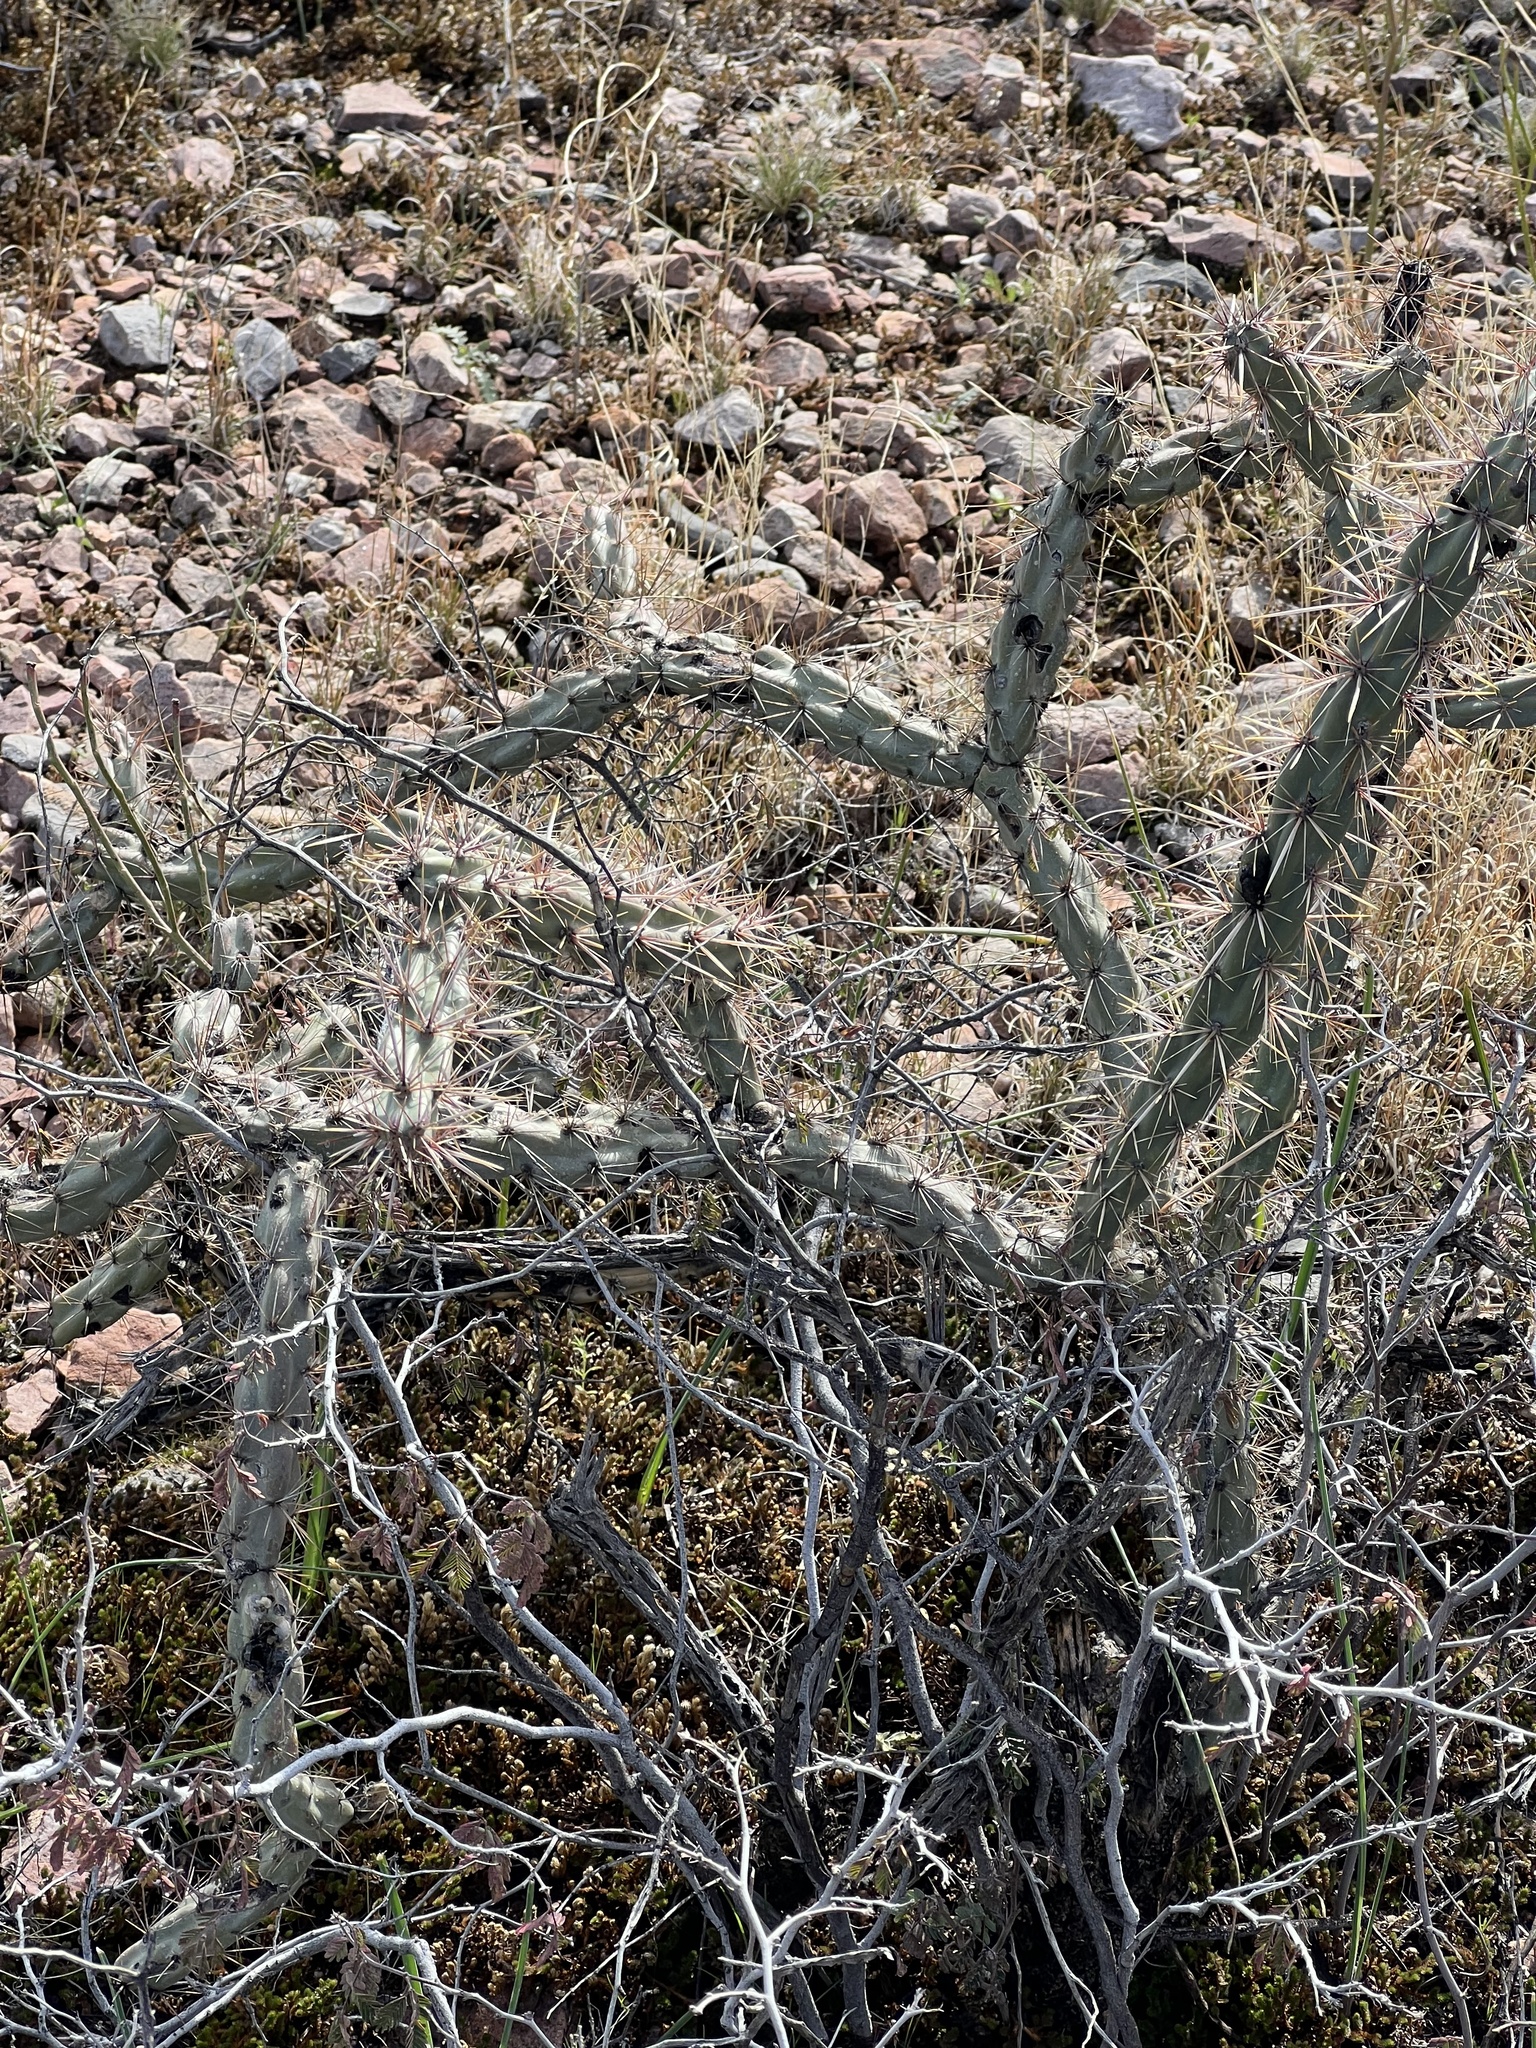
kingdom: Plantae
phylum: Tracheophyta
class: Magnoliopsida
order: Caryophyllales
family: Cactaceae
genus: Cylindropuntia
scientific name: Cylindropuntia acanthocarpa
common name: Buckhorn cholla
